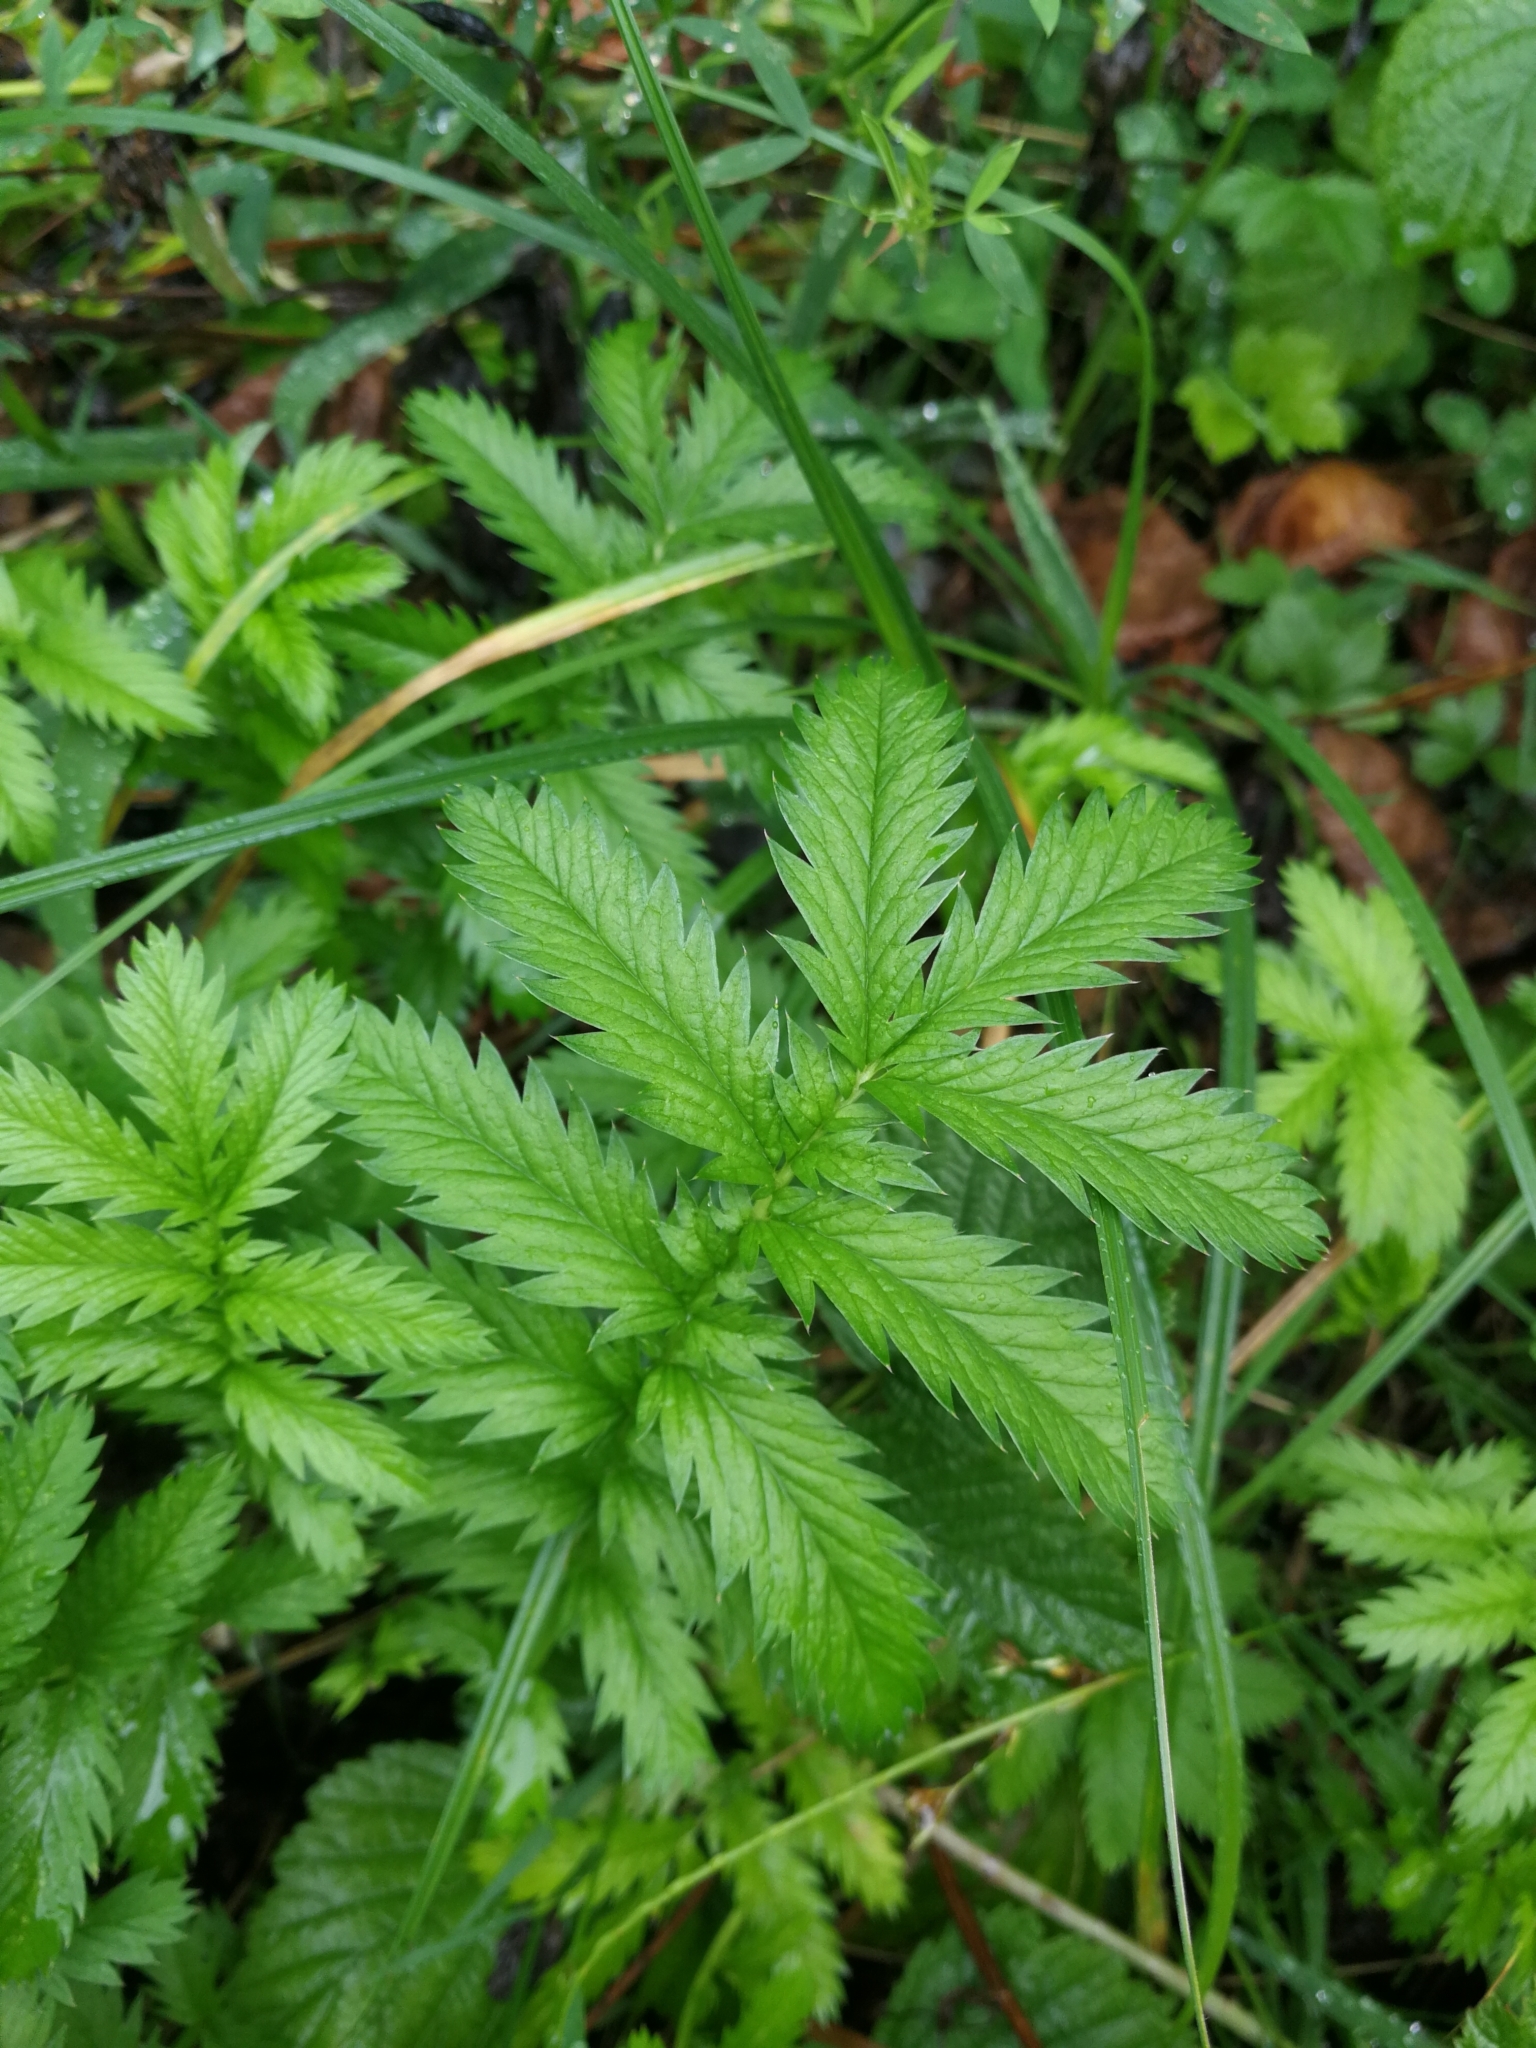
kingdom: Plantae
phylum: Tracheophyta
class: Magnoliopsida
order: Rosales
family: Rosaceae
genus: Argentina
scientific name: Argentina anserina
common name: Common silverweed
